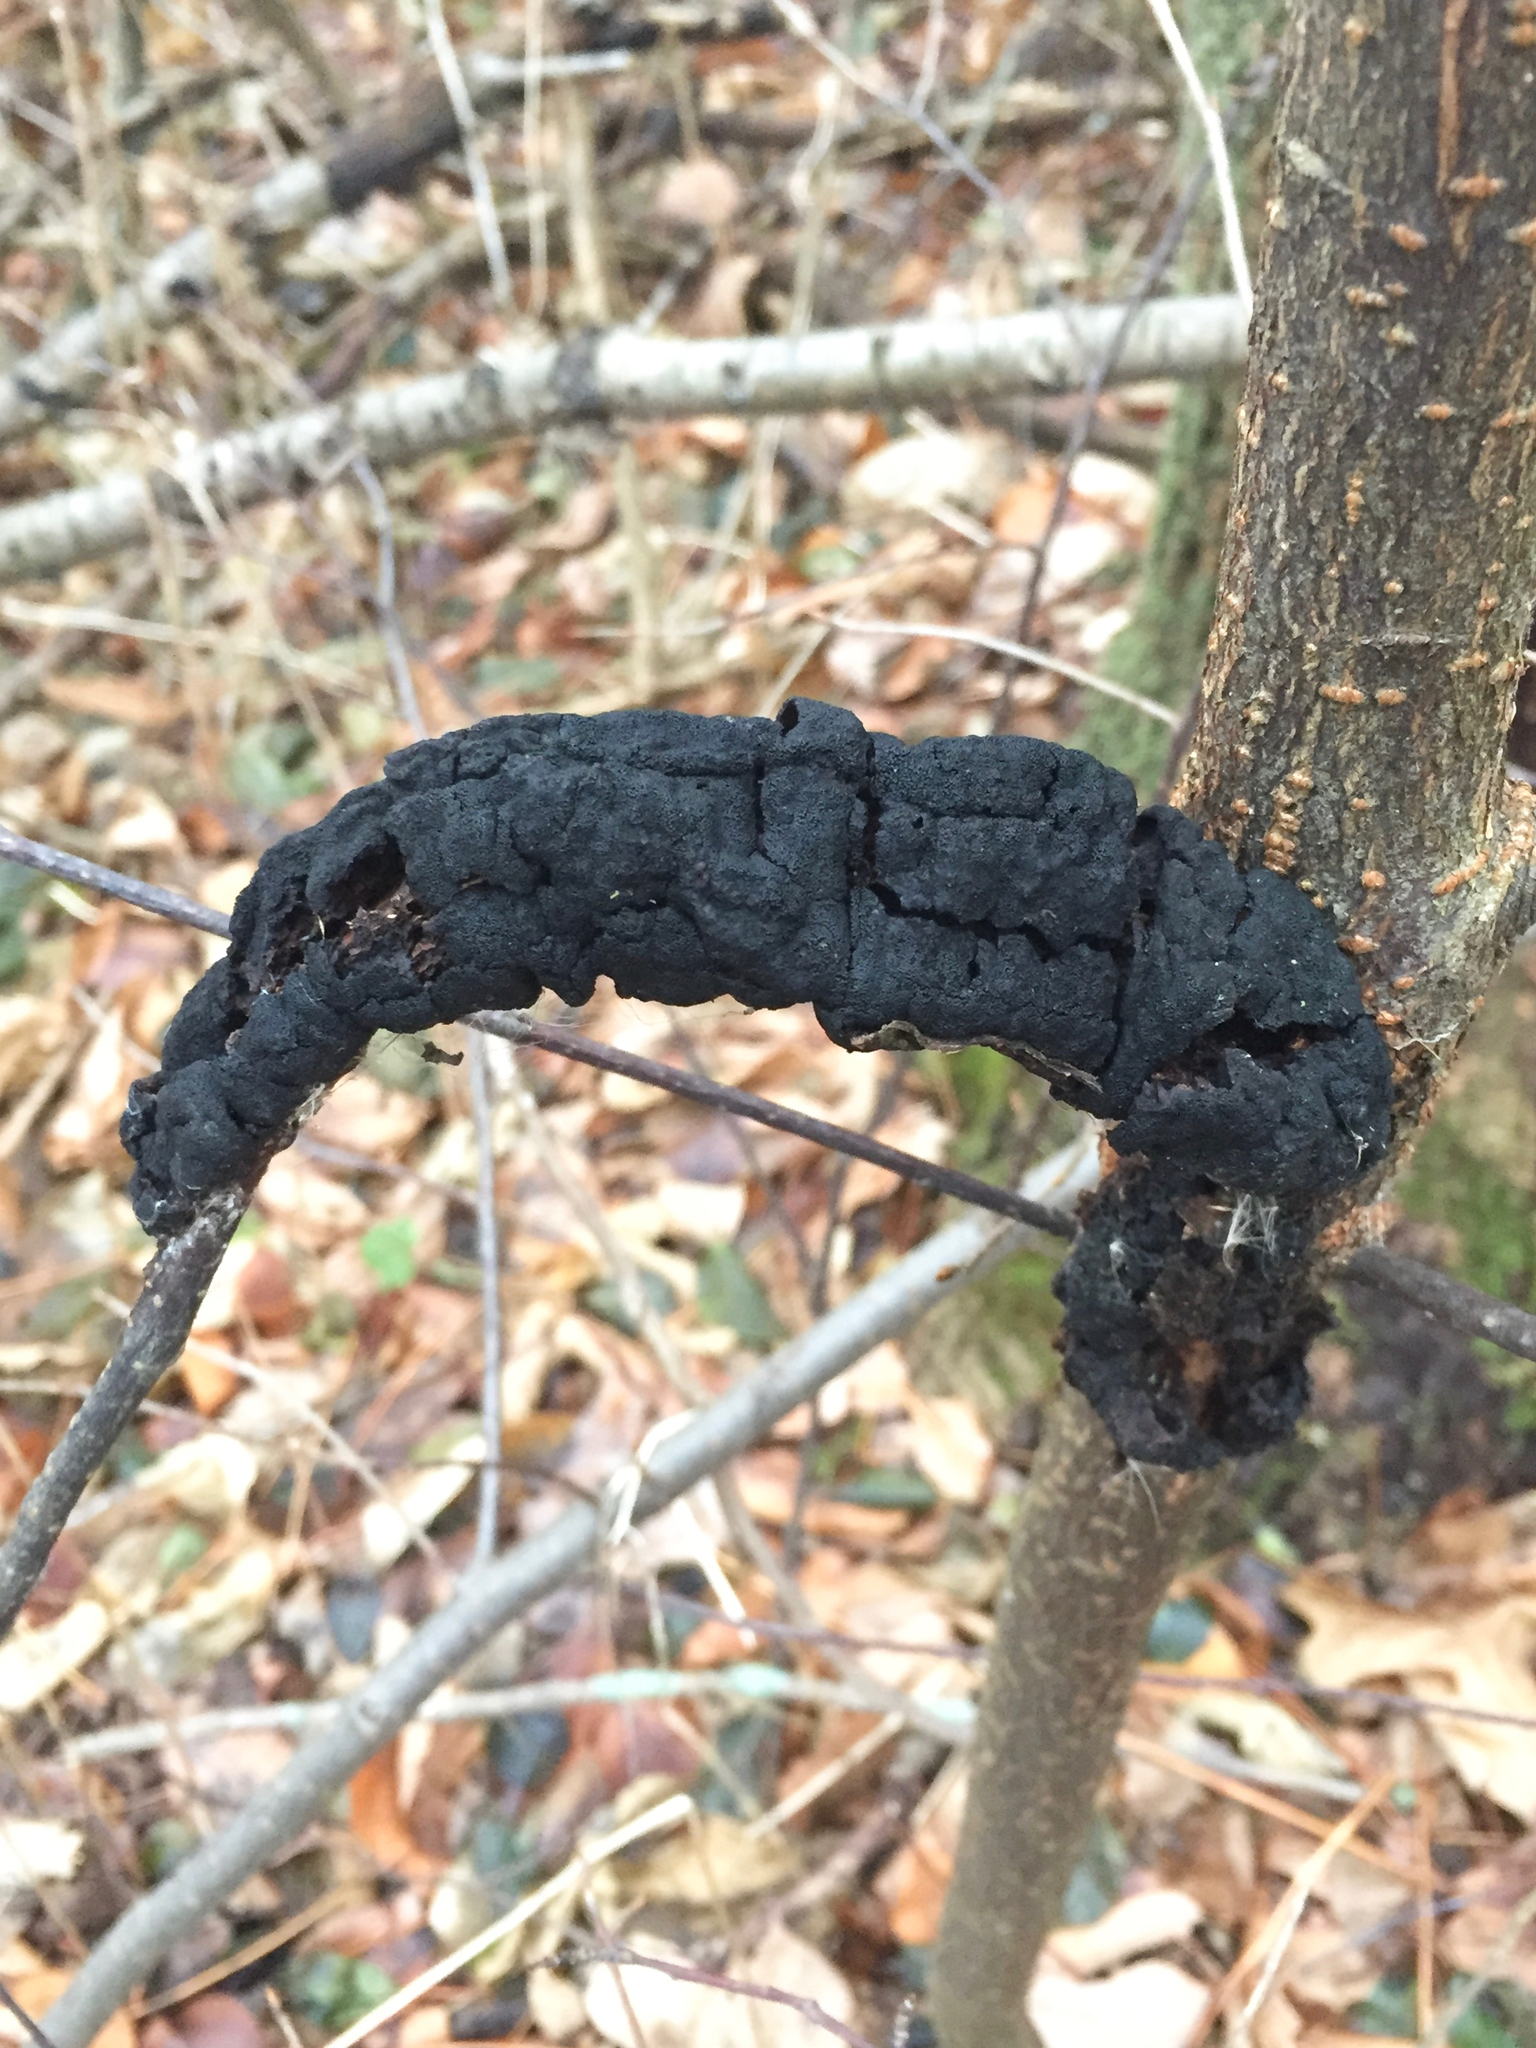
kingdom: Fungi
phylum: Ascomycota
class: Dothideomycetes
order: Venturiales
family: Venturiaceae
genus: Apiosporina
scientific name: Apiosporina morbosa
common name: Black knot
